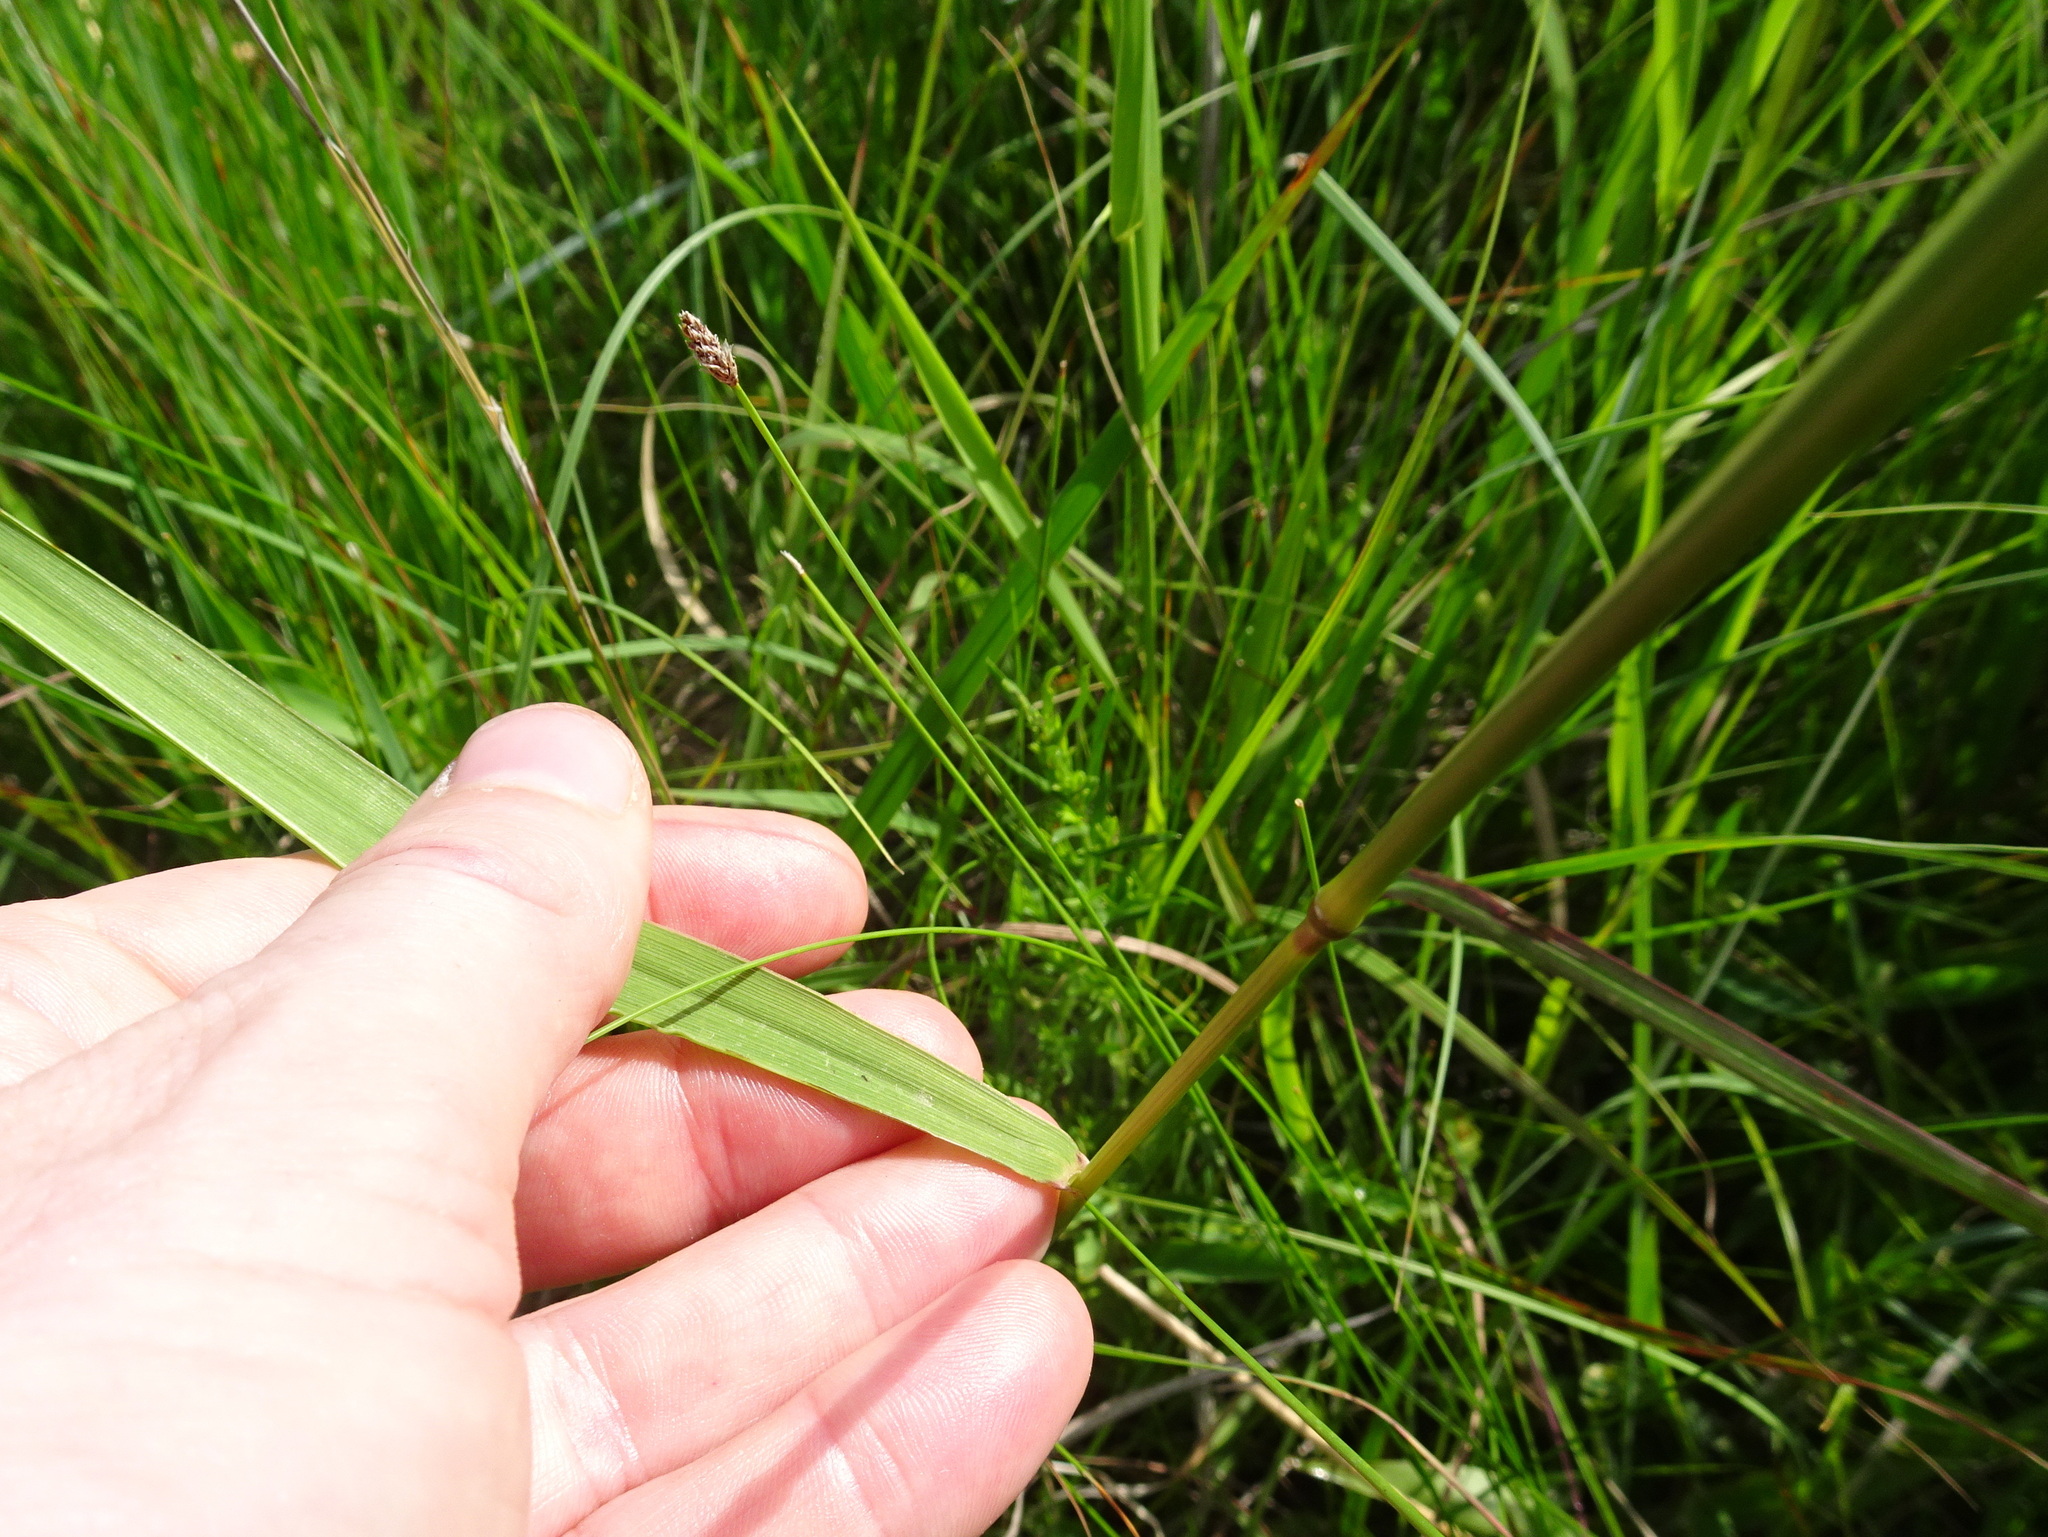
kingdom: Plantae
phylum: Tracheophyta
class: Liliopsida
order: Poales
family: Poaceae
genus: Elymus
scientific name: Elymus virginicus
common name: Common eastern wildrye
